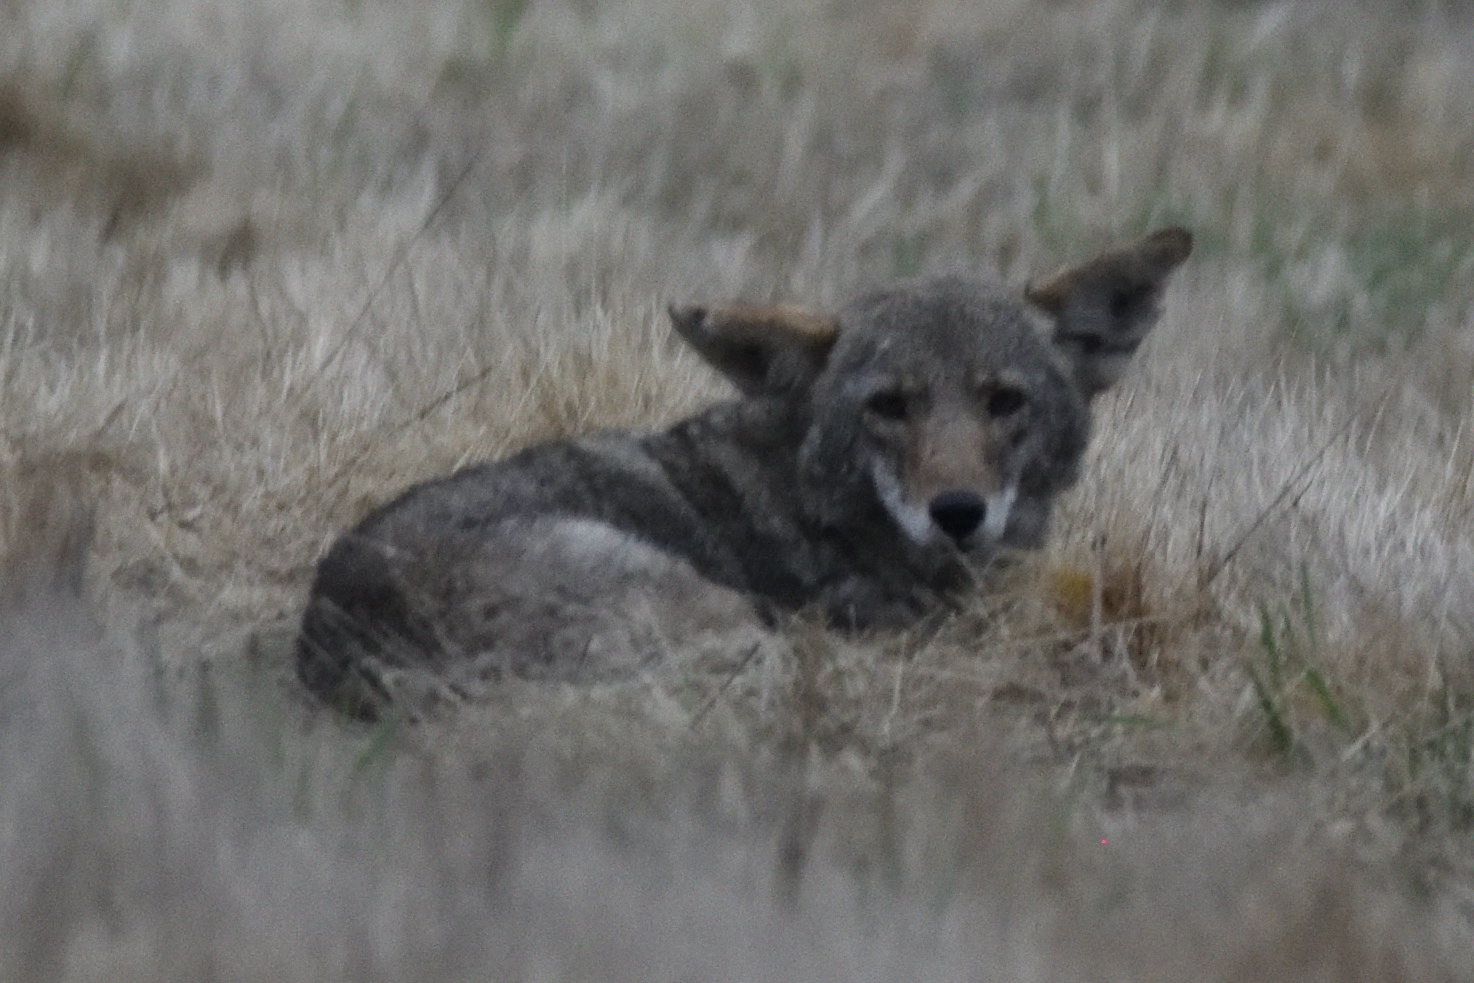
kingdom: Animalia
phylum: Chordata
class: Mammalia
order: Carnivora
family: Canidae
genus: Canis
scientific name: Canis latrans
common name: Coyote
